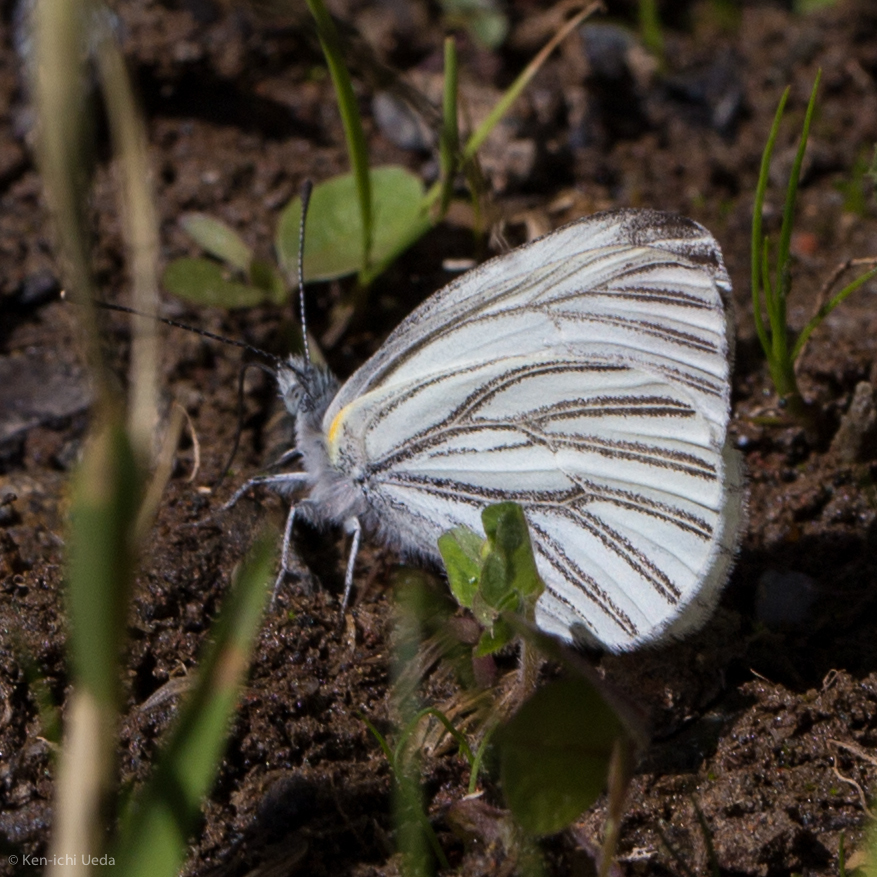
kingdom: Animalia
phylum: Arthropoda
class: Insecta
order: Lepidoptera
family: Pieridae
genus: Pieris
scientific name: Pieris marginalis
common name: Margined white
